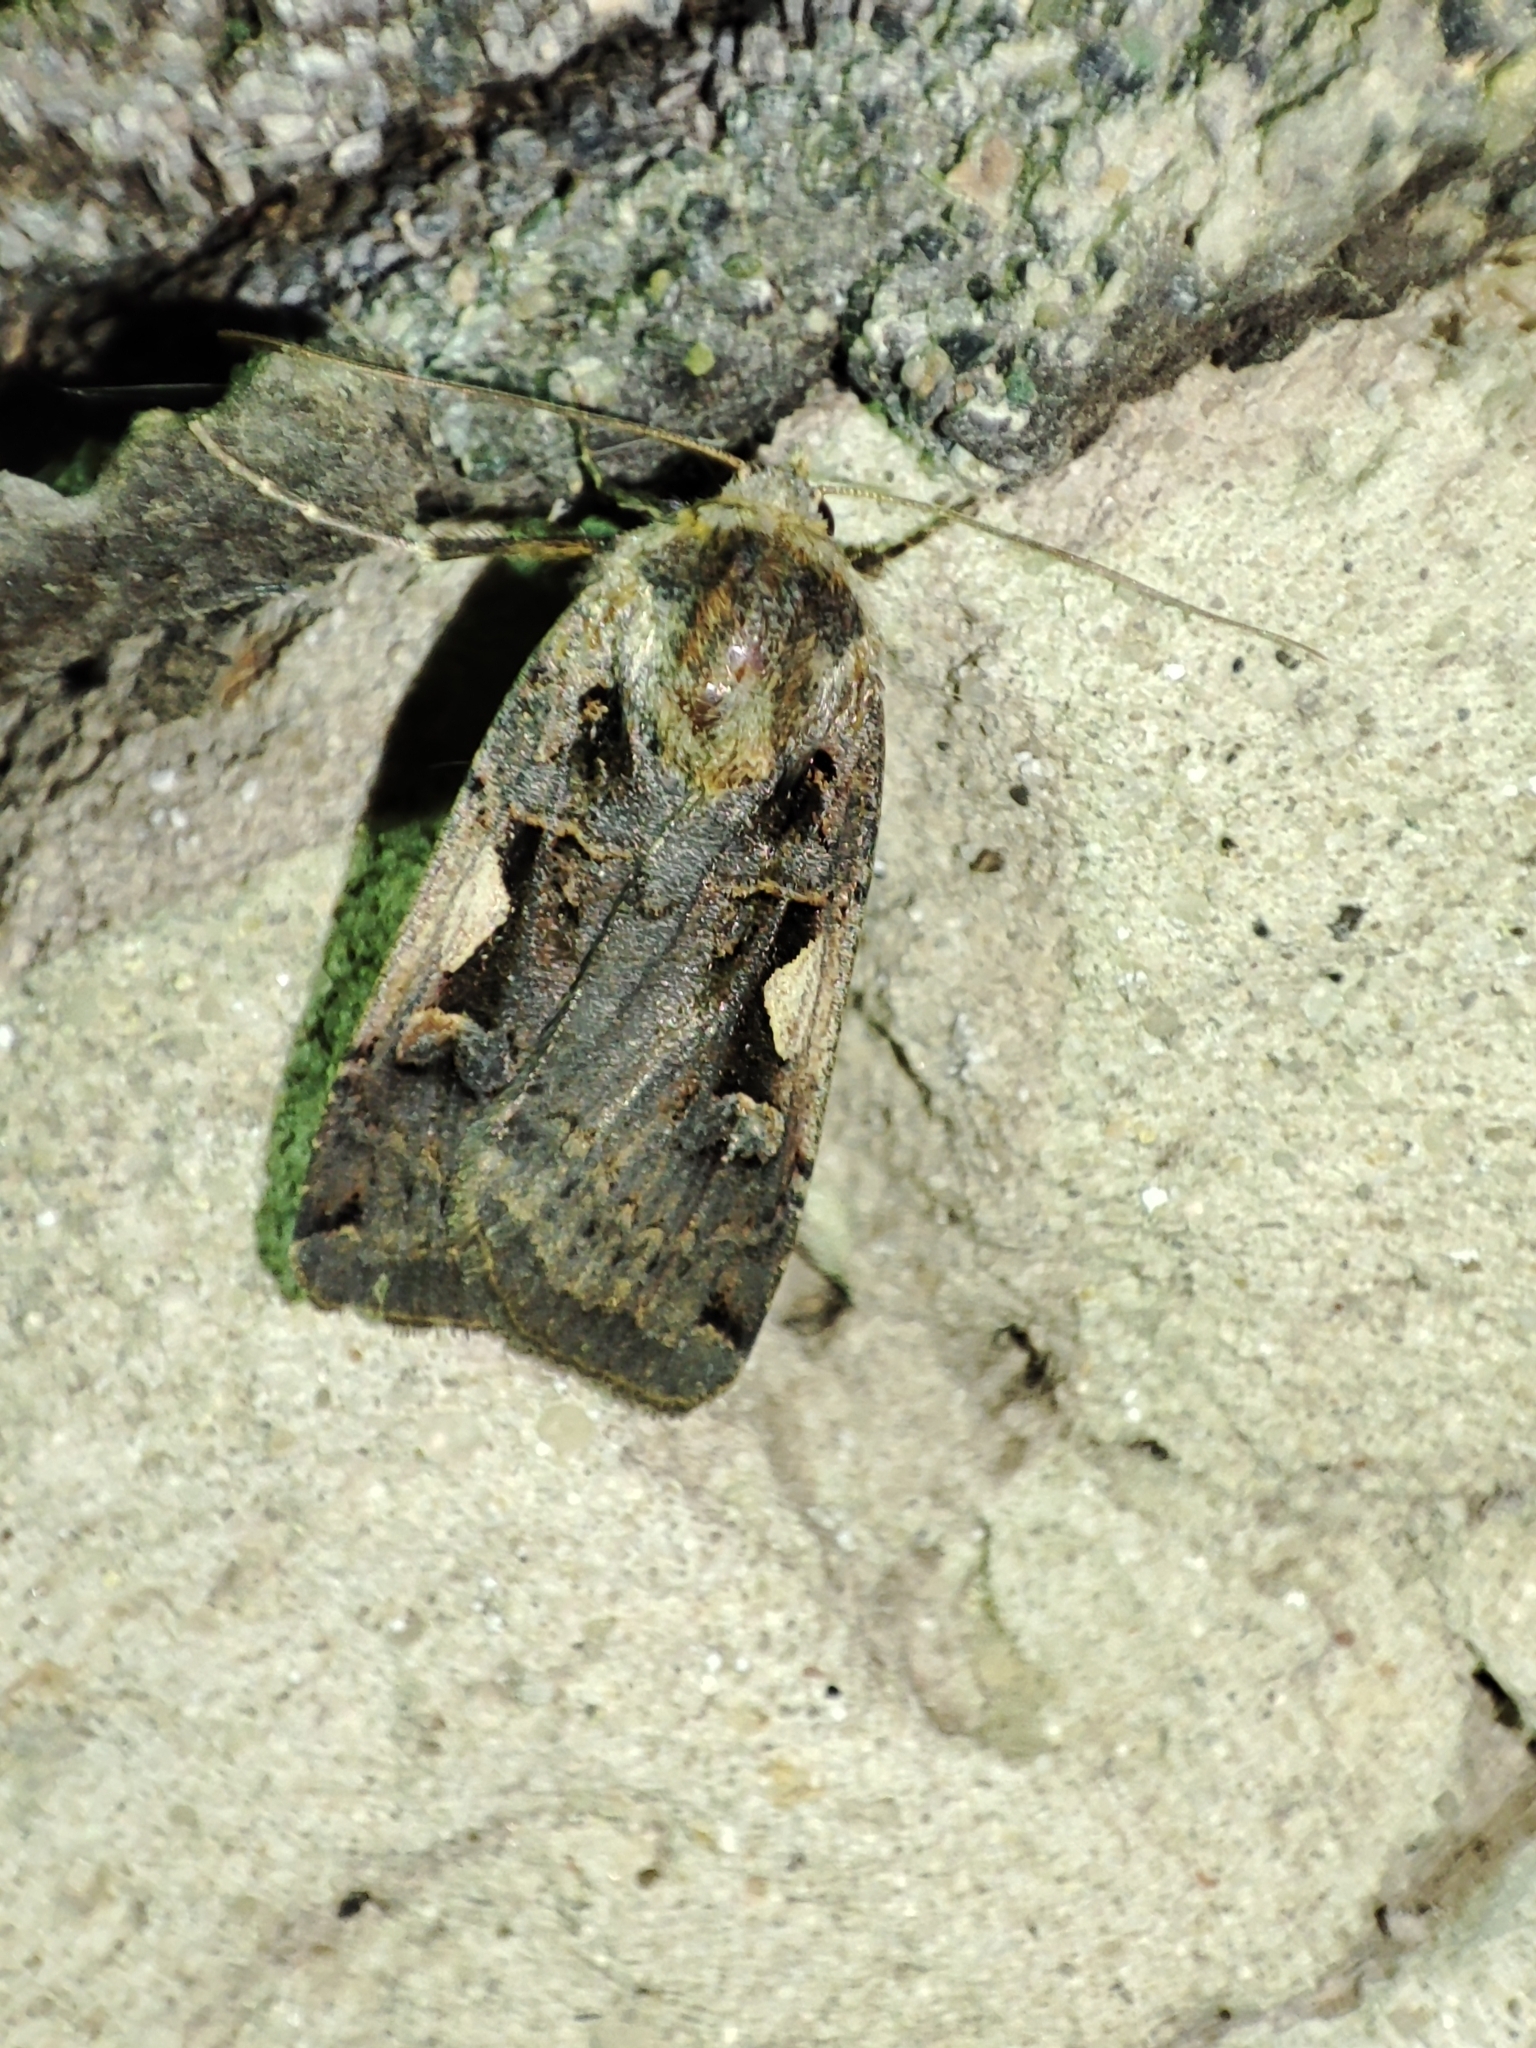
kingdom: Animalia
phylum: Arthropoda
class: Insecta
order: Lepidoptera
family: Noctuidae
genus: Xestia
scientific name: Xestia c-nigrum
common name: Setaceous hebrew character
